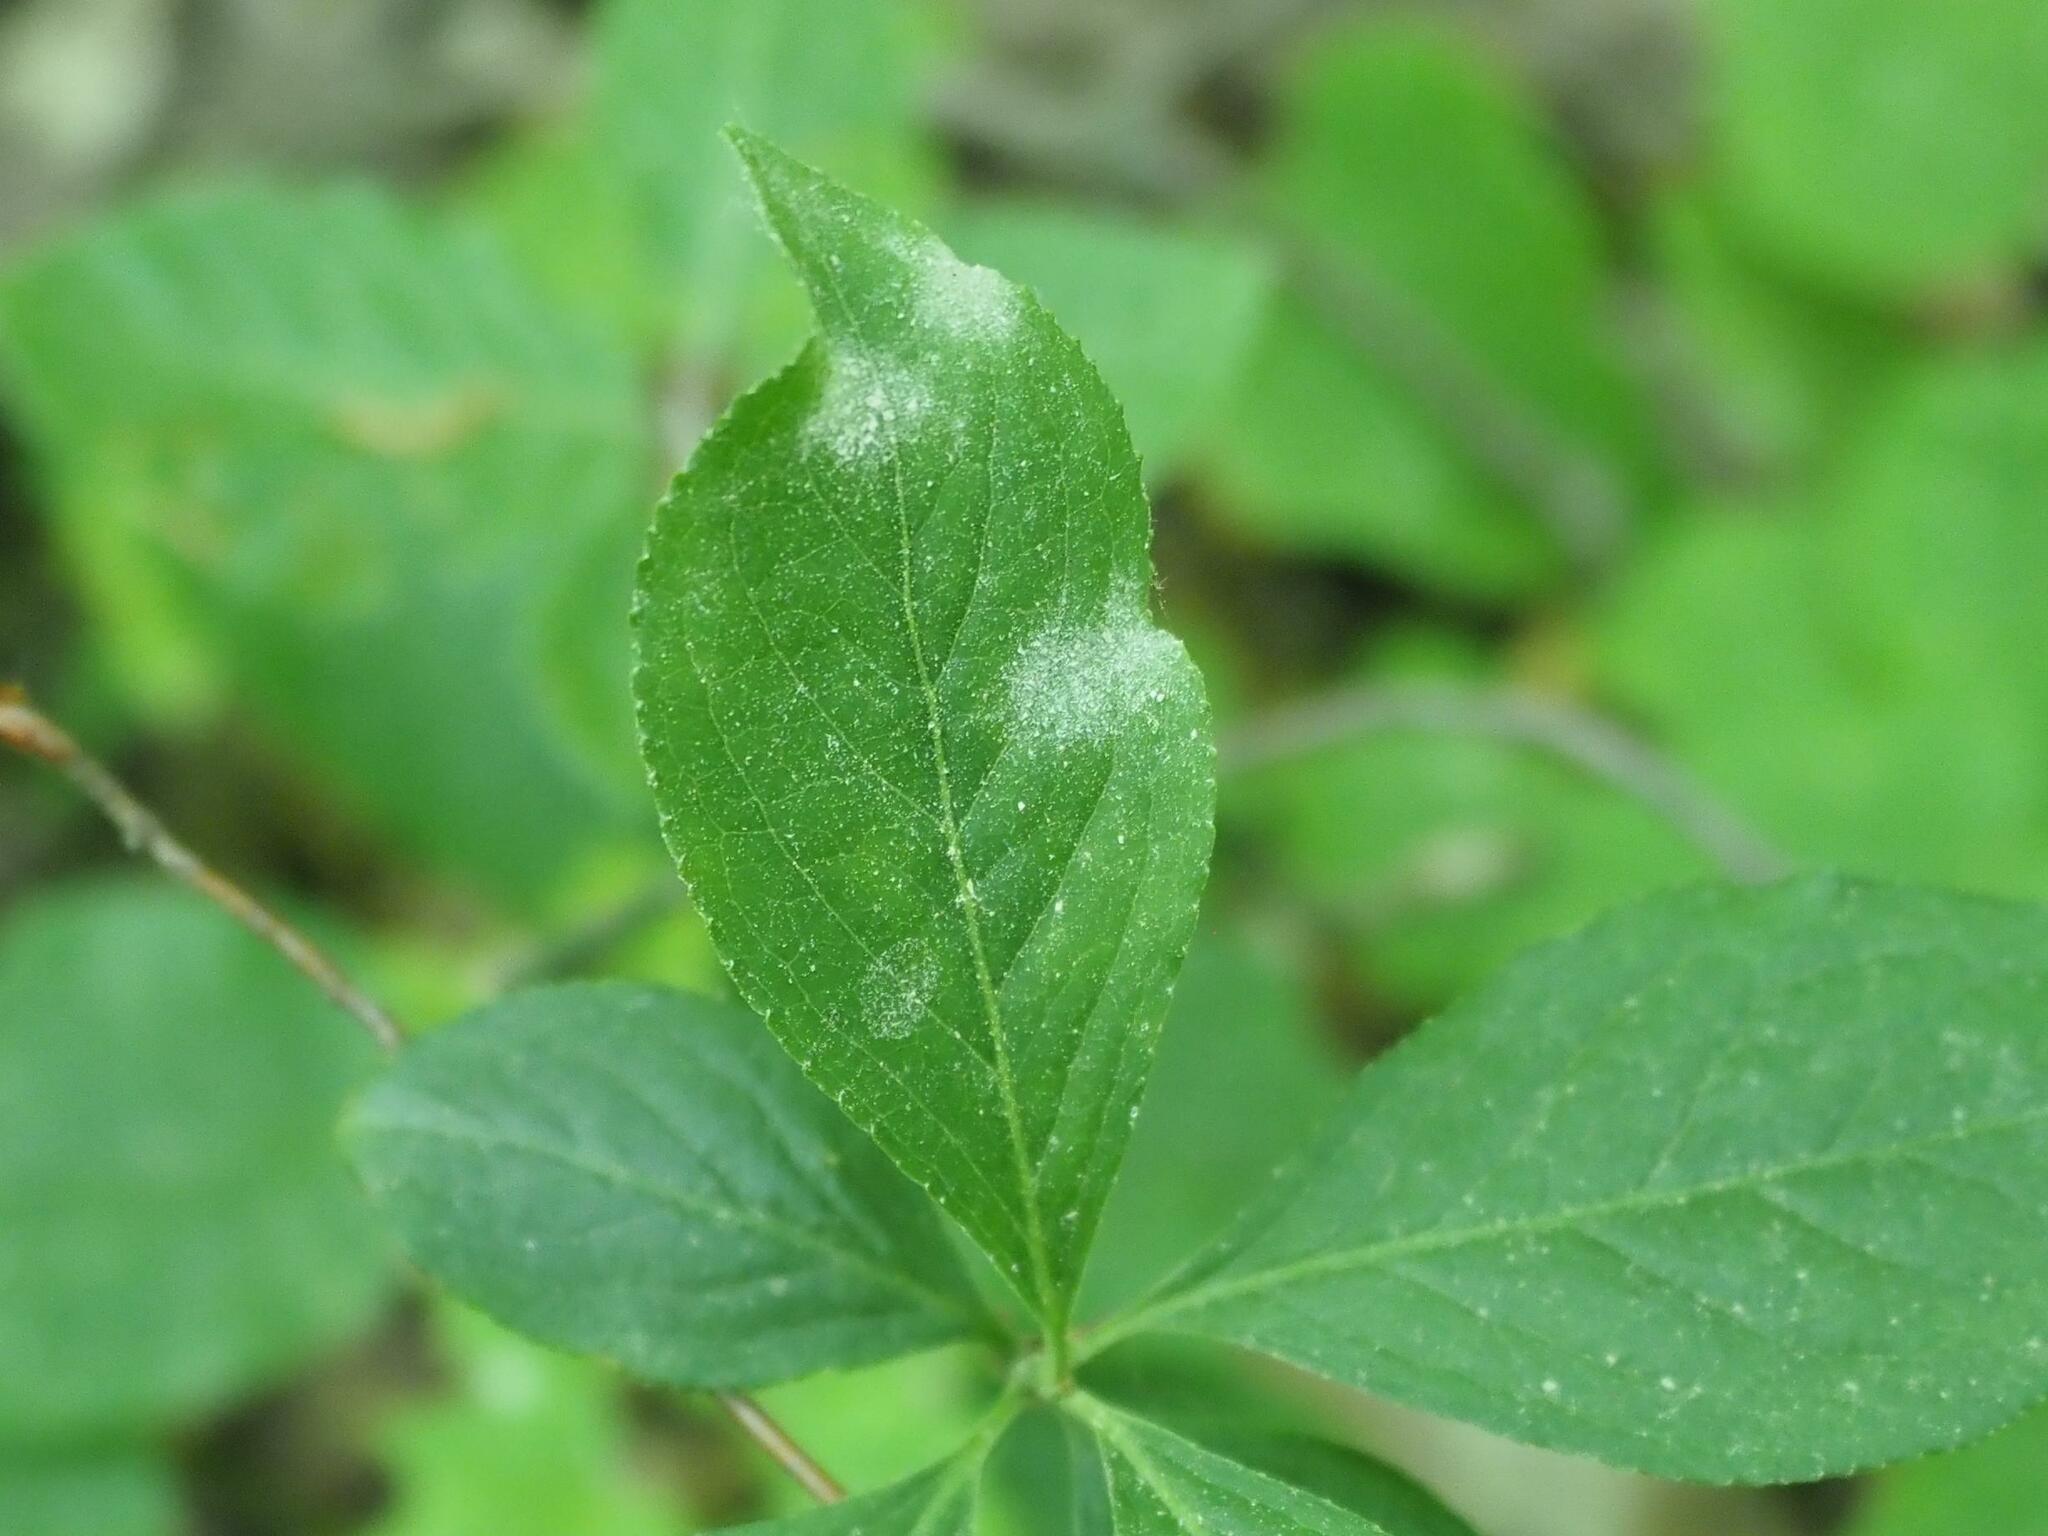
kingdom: Fungi
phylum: Ascomycota
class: Leotiomycetes
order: Helotiales
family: Erysiphaceae
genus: Erysiphe
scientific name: Erysiphe euonymi
